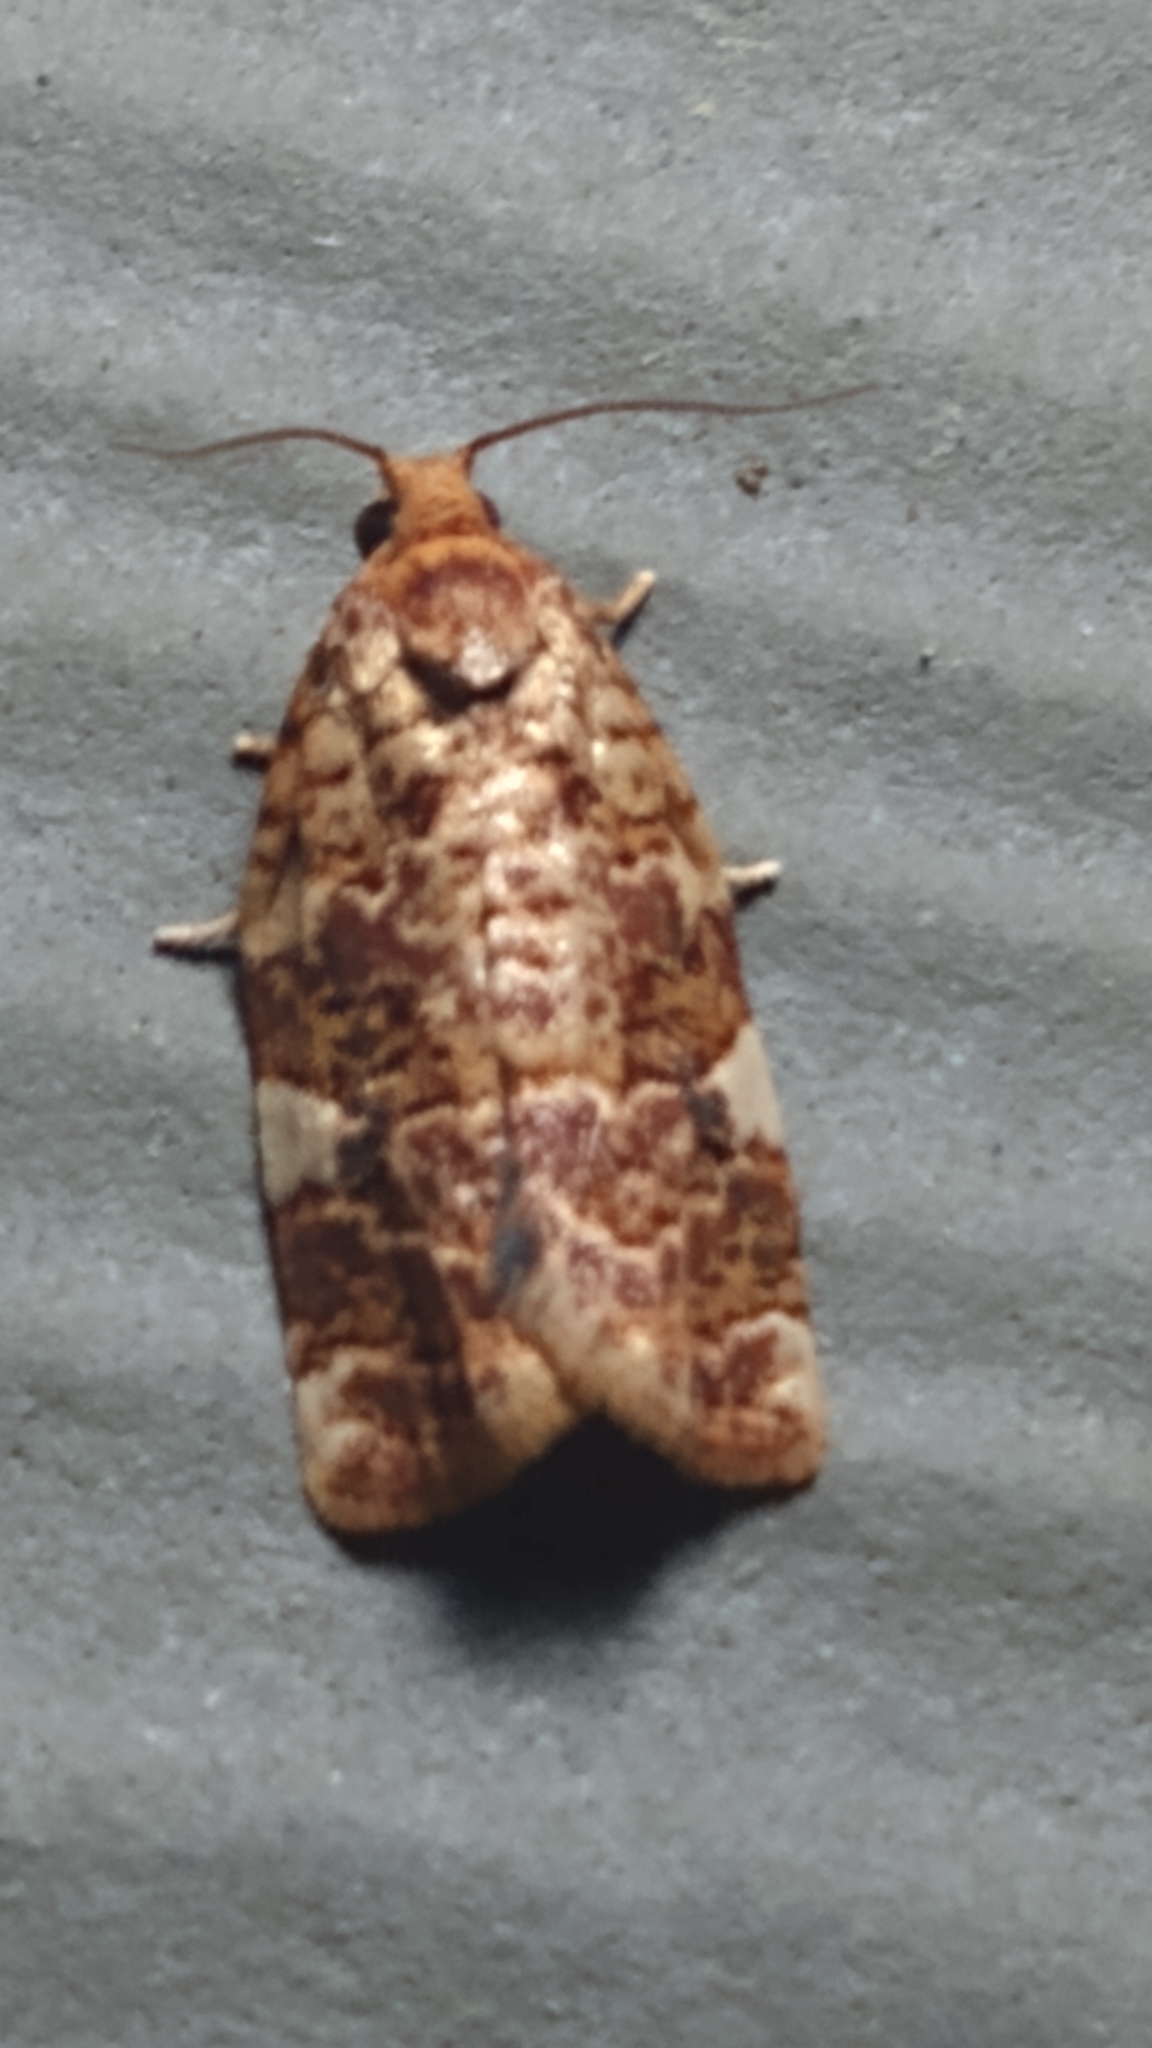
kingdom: Animalia
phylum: Arthropoda
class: Insecta
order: Lepidoptera
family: Tortricidae
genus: Archips
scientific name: Archips argyrospila
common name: Fruit-tree leafroller moth
